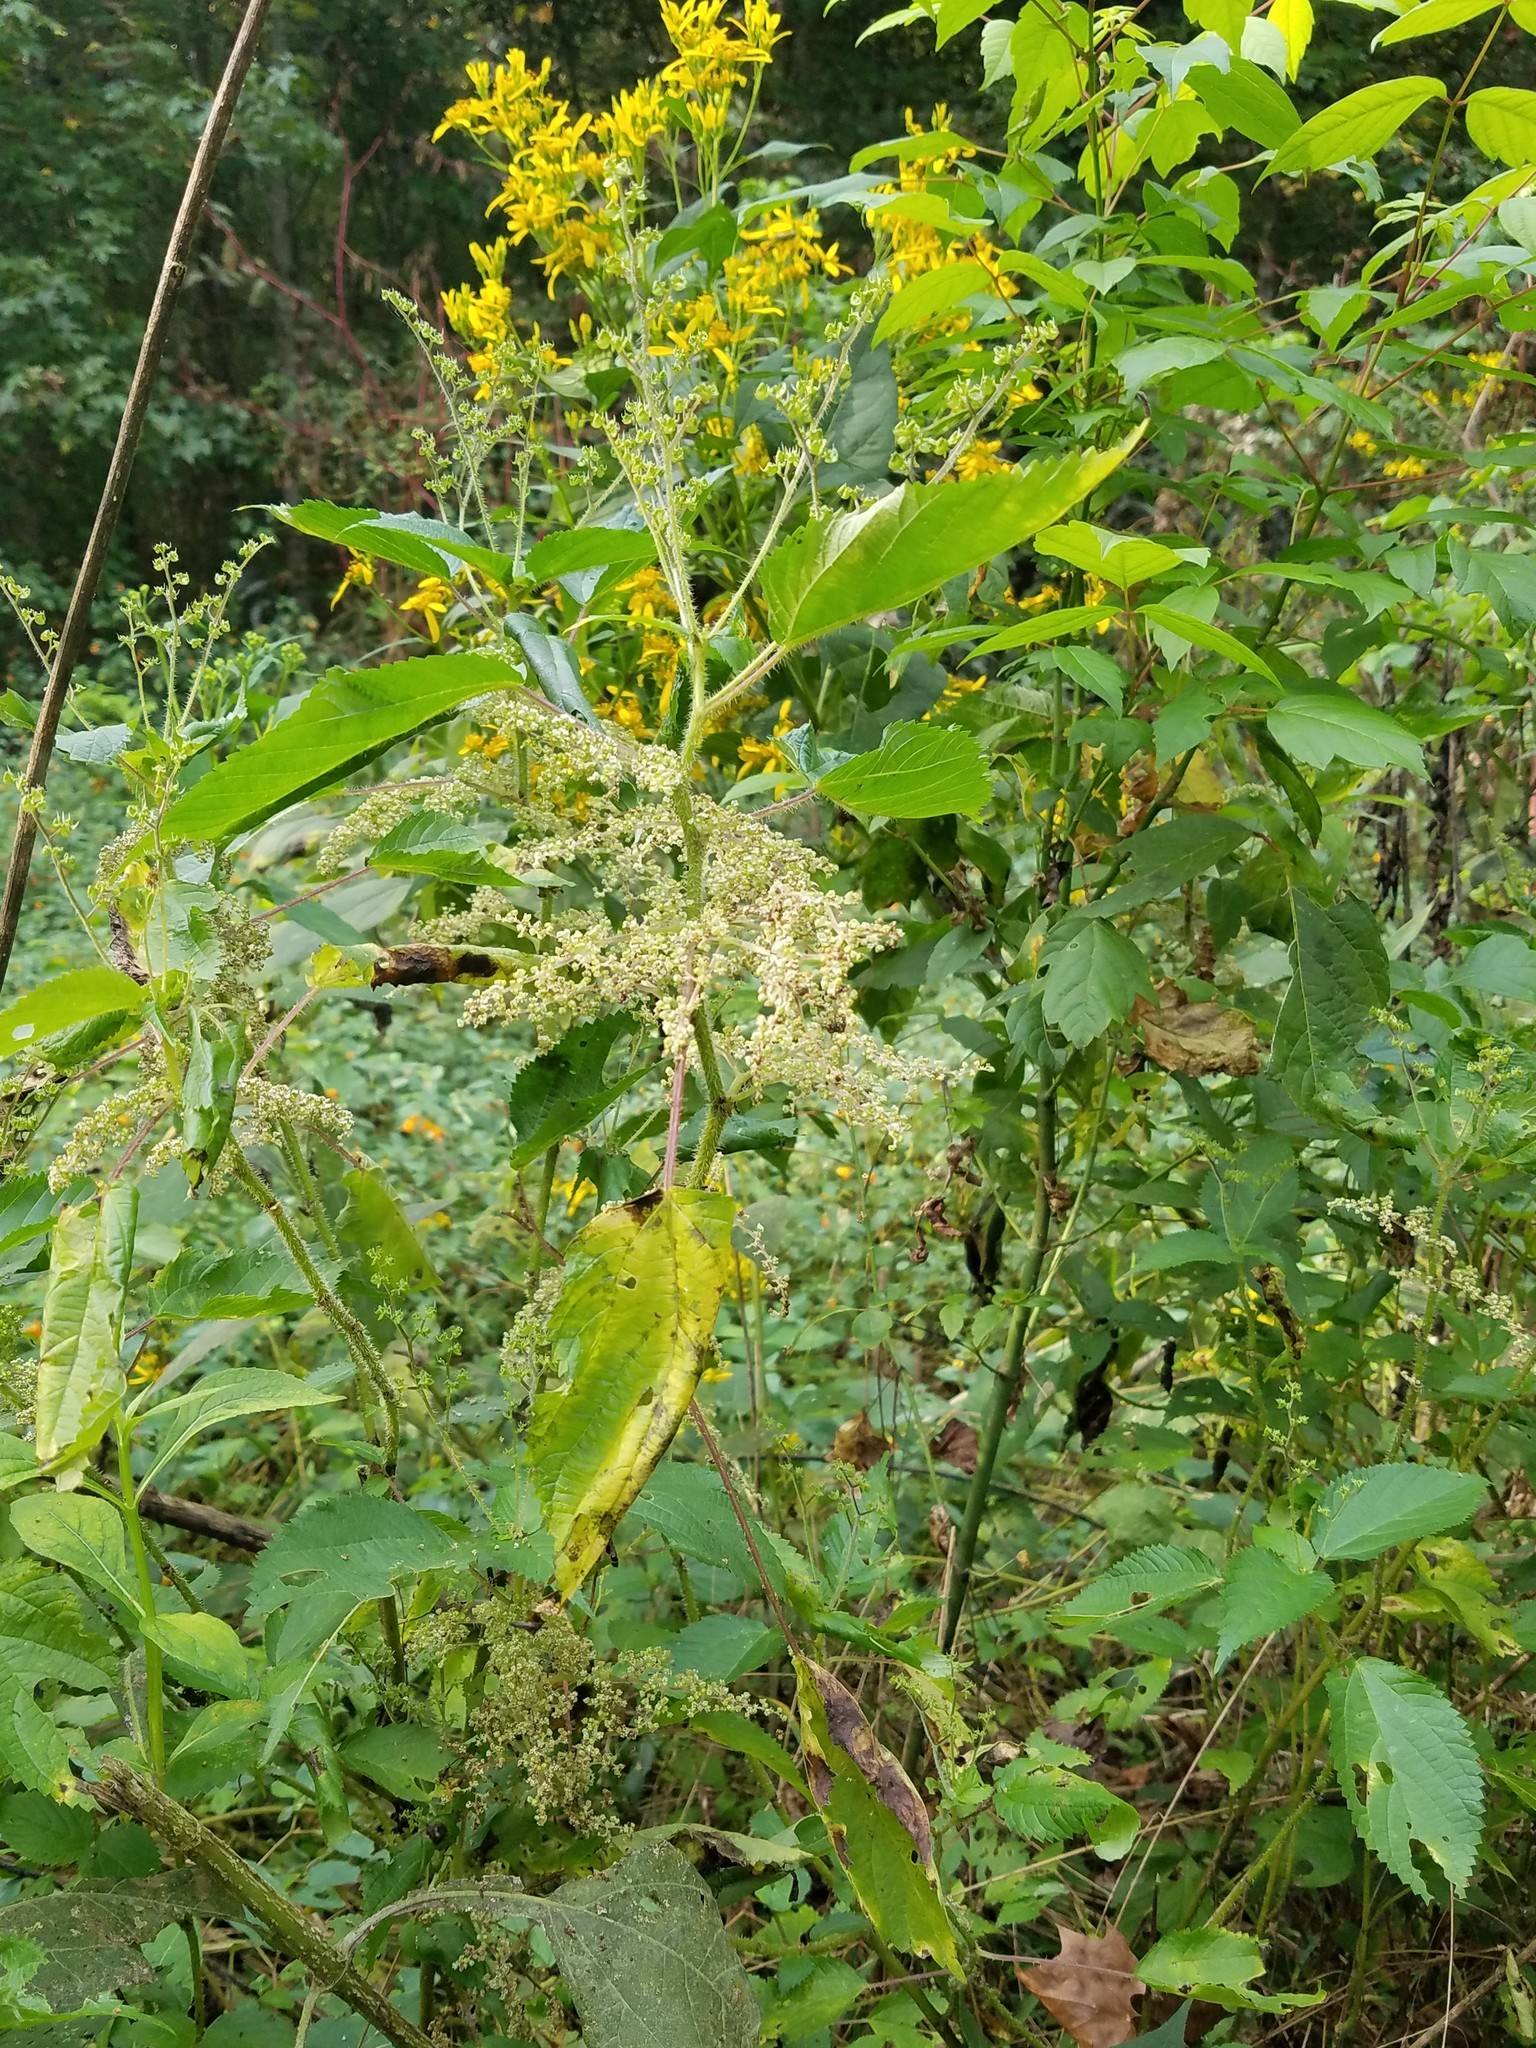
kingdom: Plantae
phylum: Tracheophyta
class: Magnoliopsida
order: Rosales
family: Urticaceae
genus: Laportea
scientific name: Laportea canadensis
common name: Canada nettle
